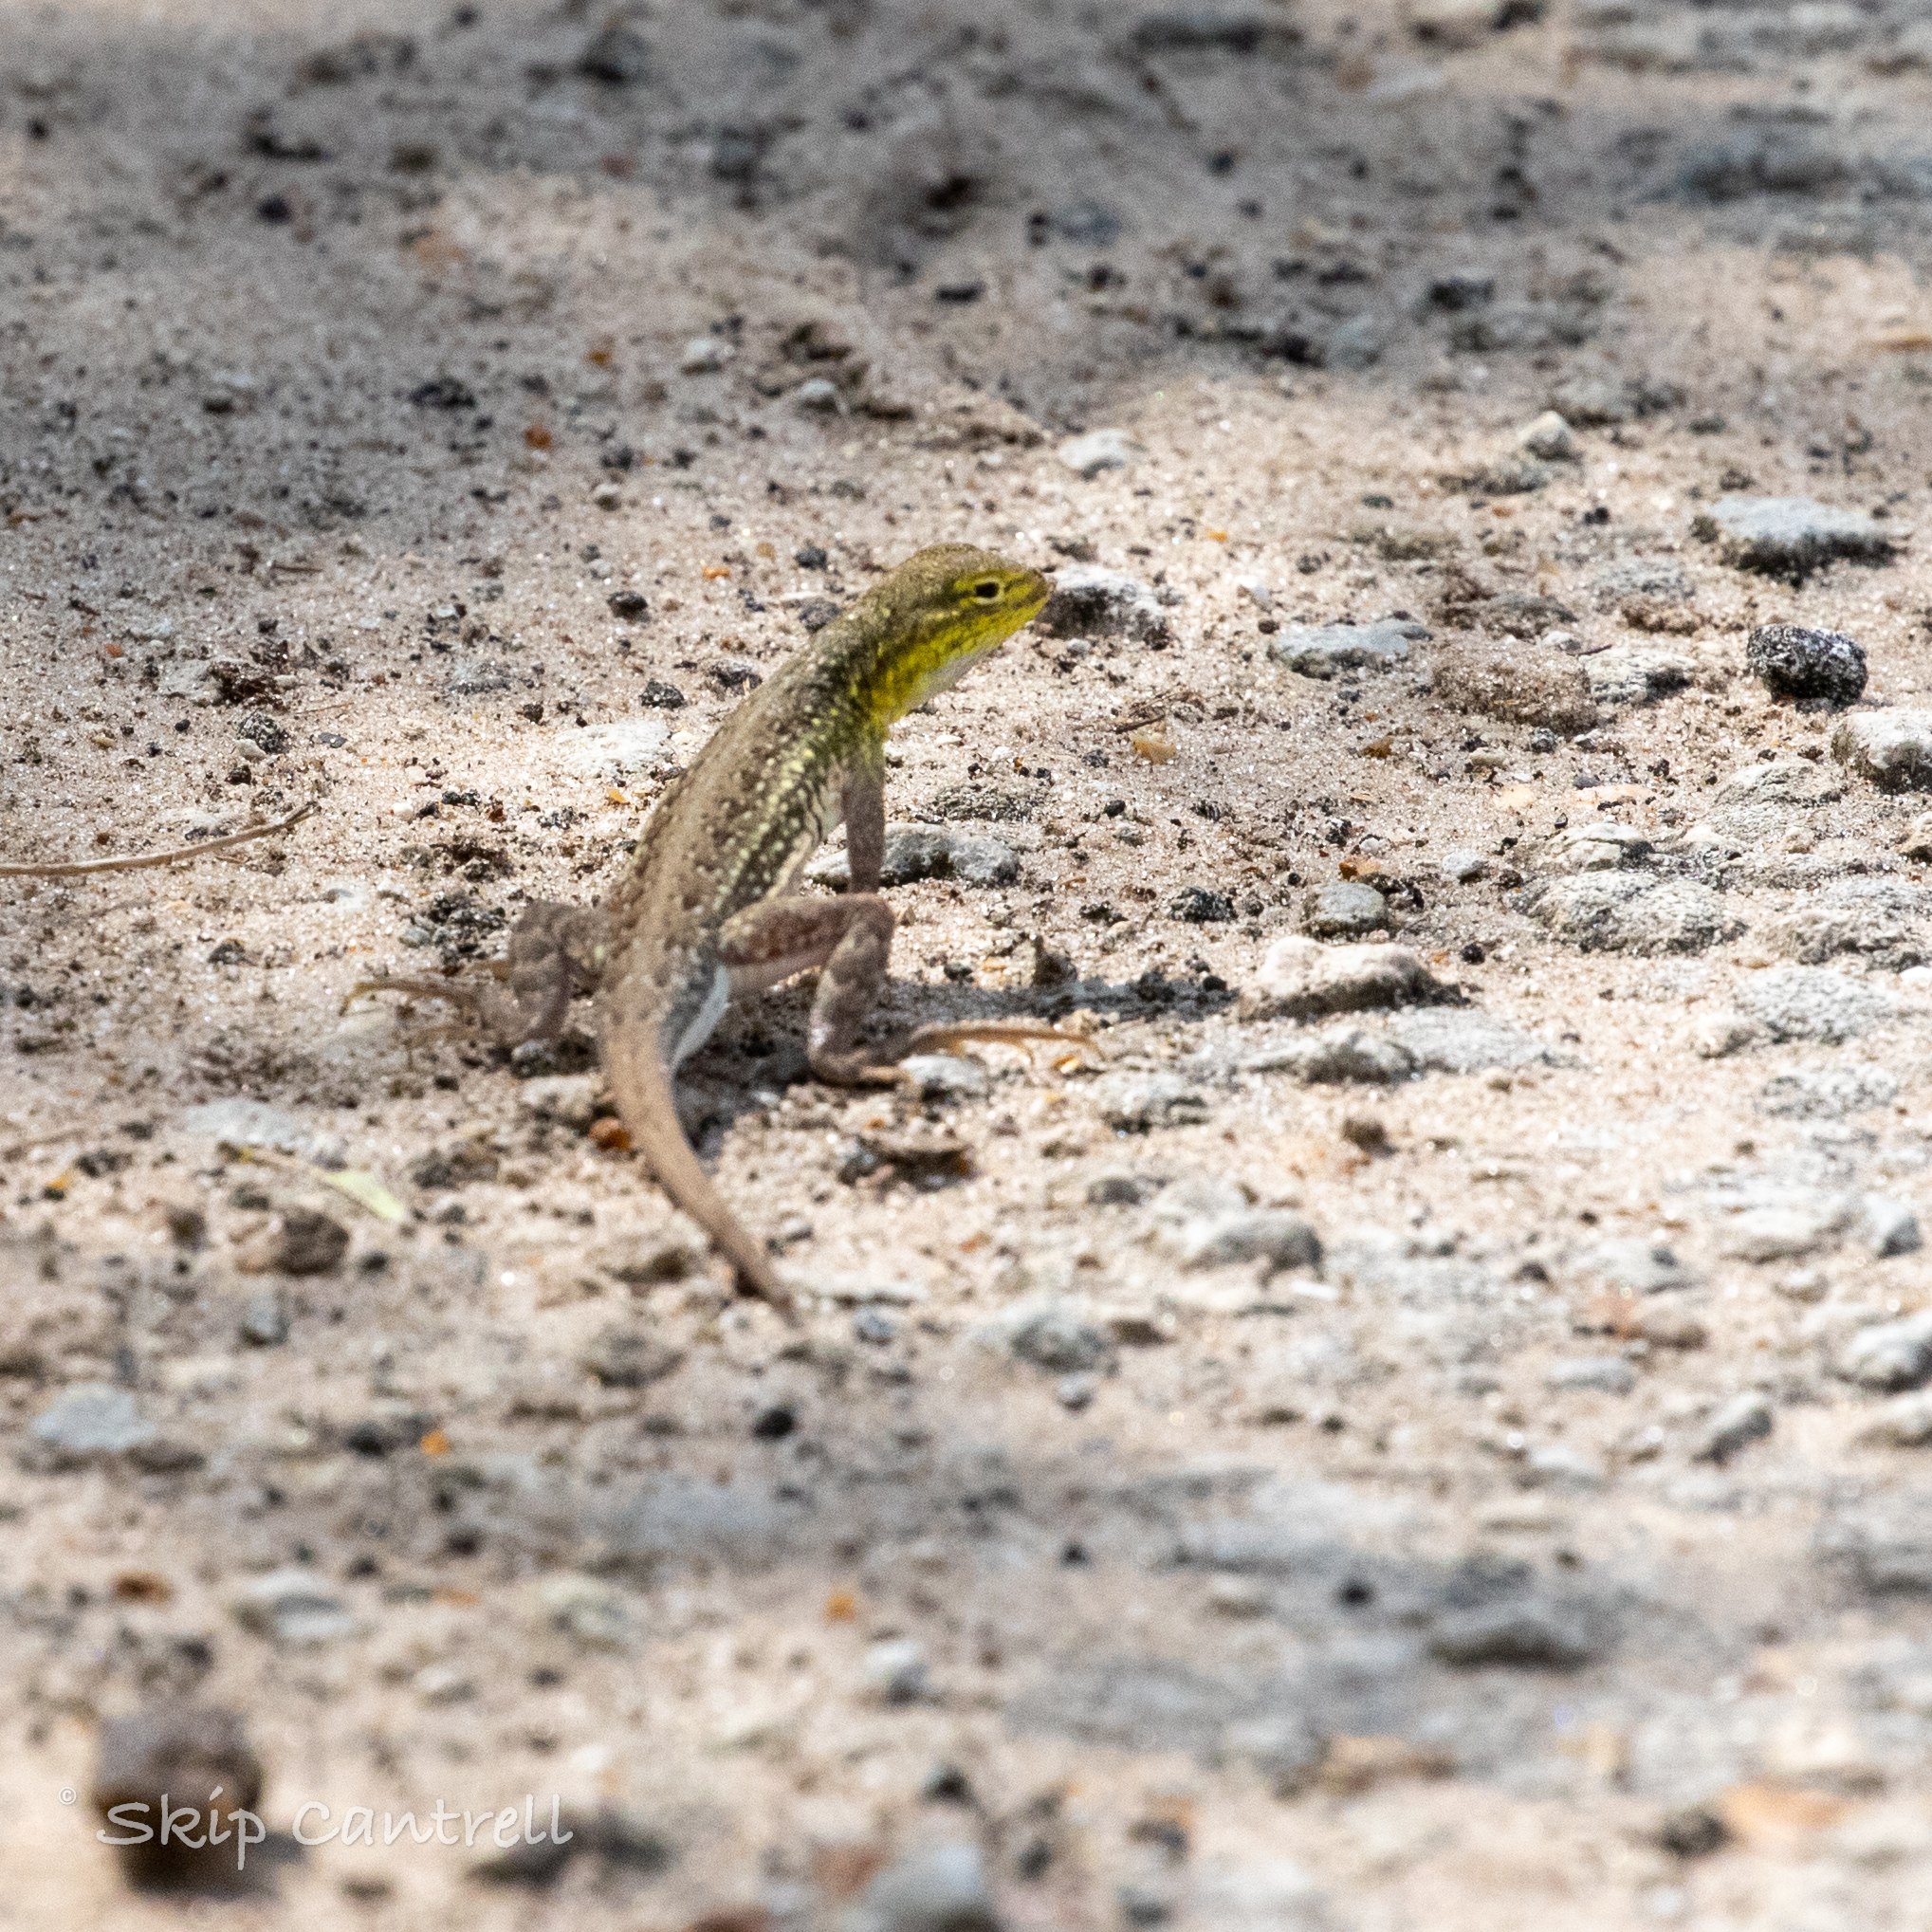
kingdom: Animalia
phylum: Chordata
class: Squamata
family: Phrynosomatidae
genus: Holbrookia
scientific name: Holbrookia propinqua
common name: Keeled earless lizard
